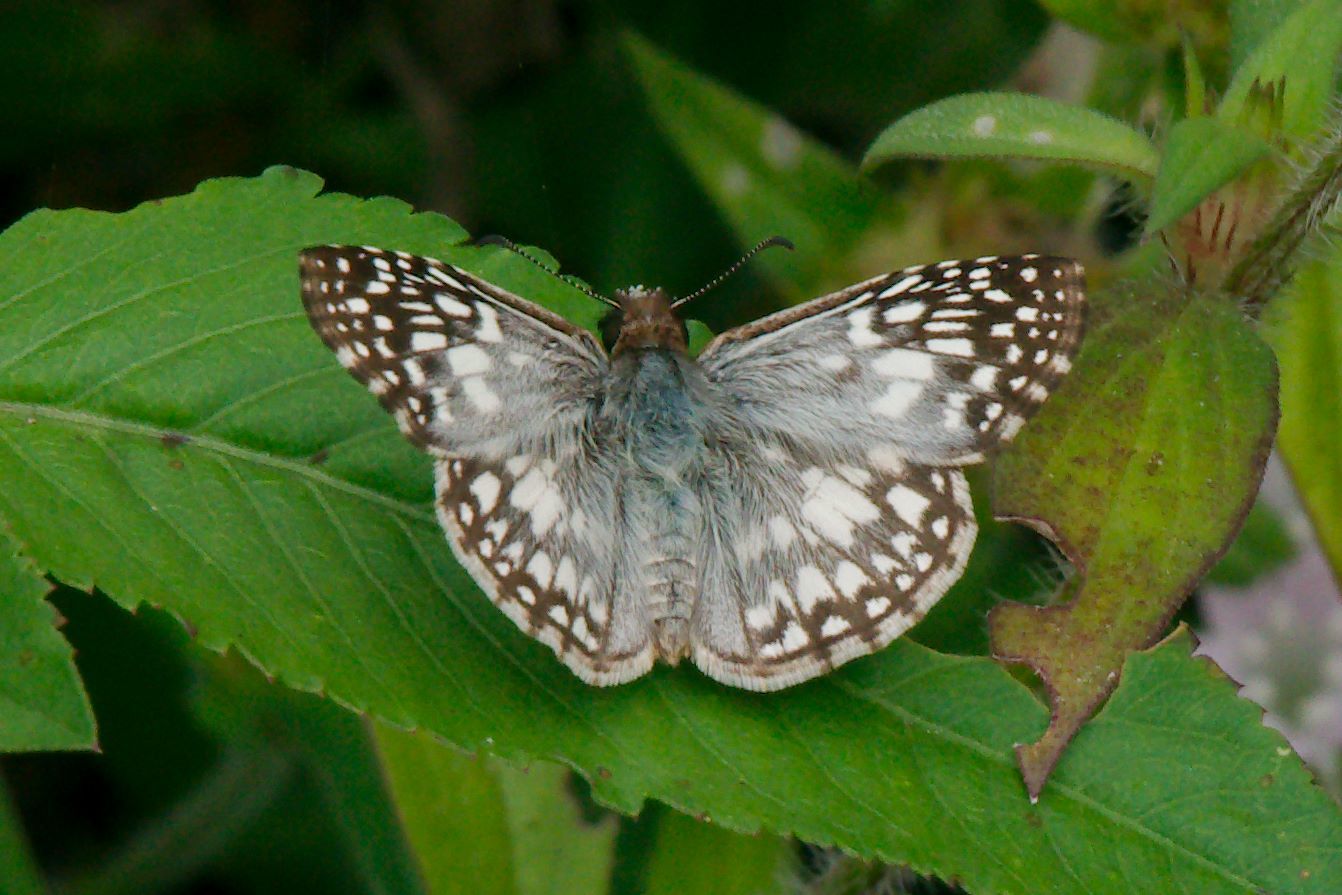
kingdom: Animalia
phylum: Arthropoda
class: Insecta
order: Lepidoptera
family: Hesperiidae
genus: Pyrgus
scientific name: Pyrgus oileus
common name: Tropical checkered-skipper
